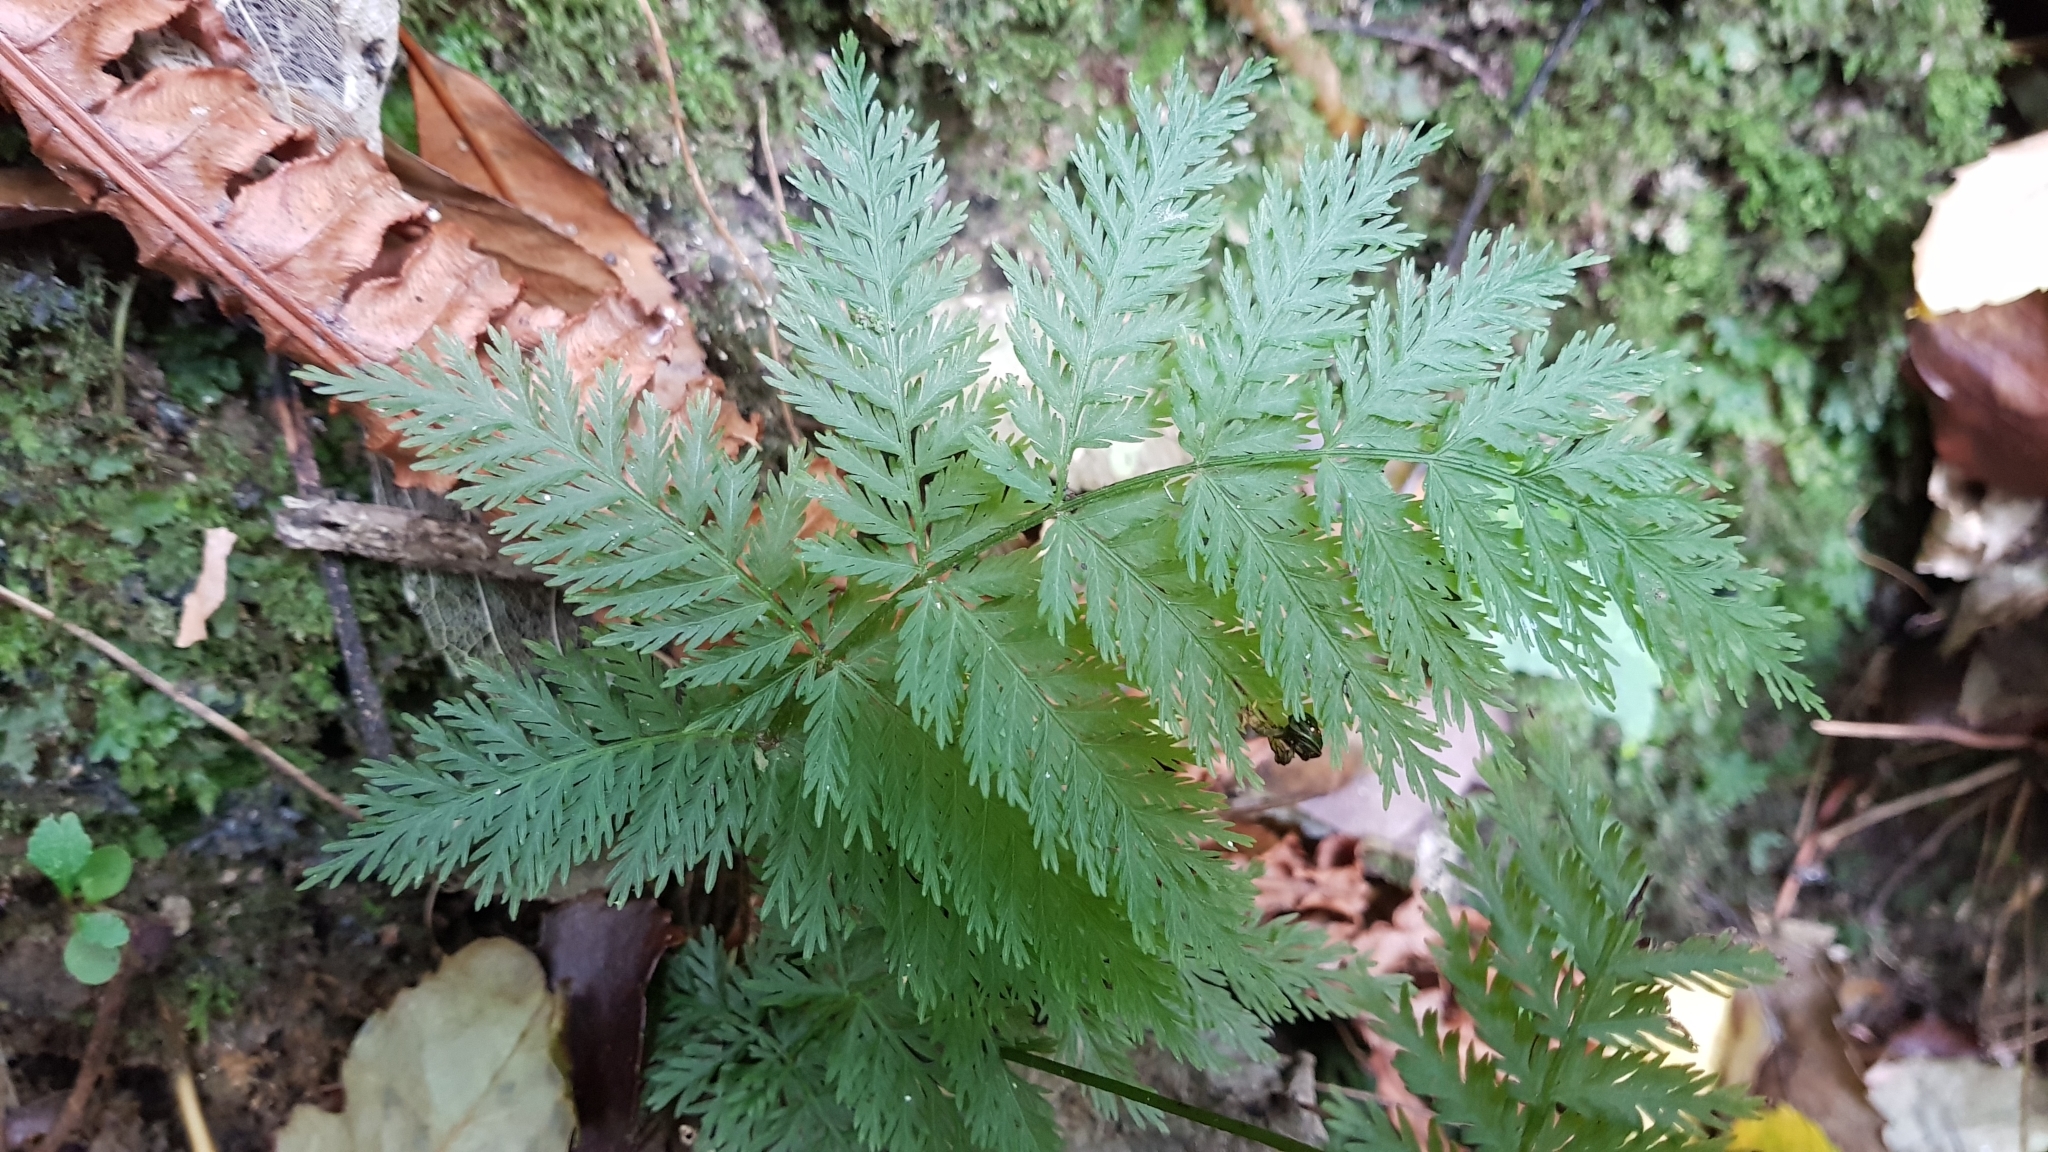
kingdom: Plantae
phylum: Tracheophyta
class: Polypodiopsida
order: Osmundales
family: Osmundaceae
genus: Leptopteris
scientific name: Leptopteris hymenophylloides
